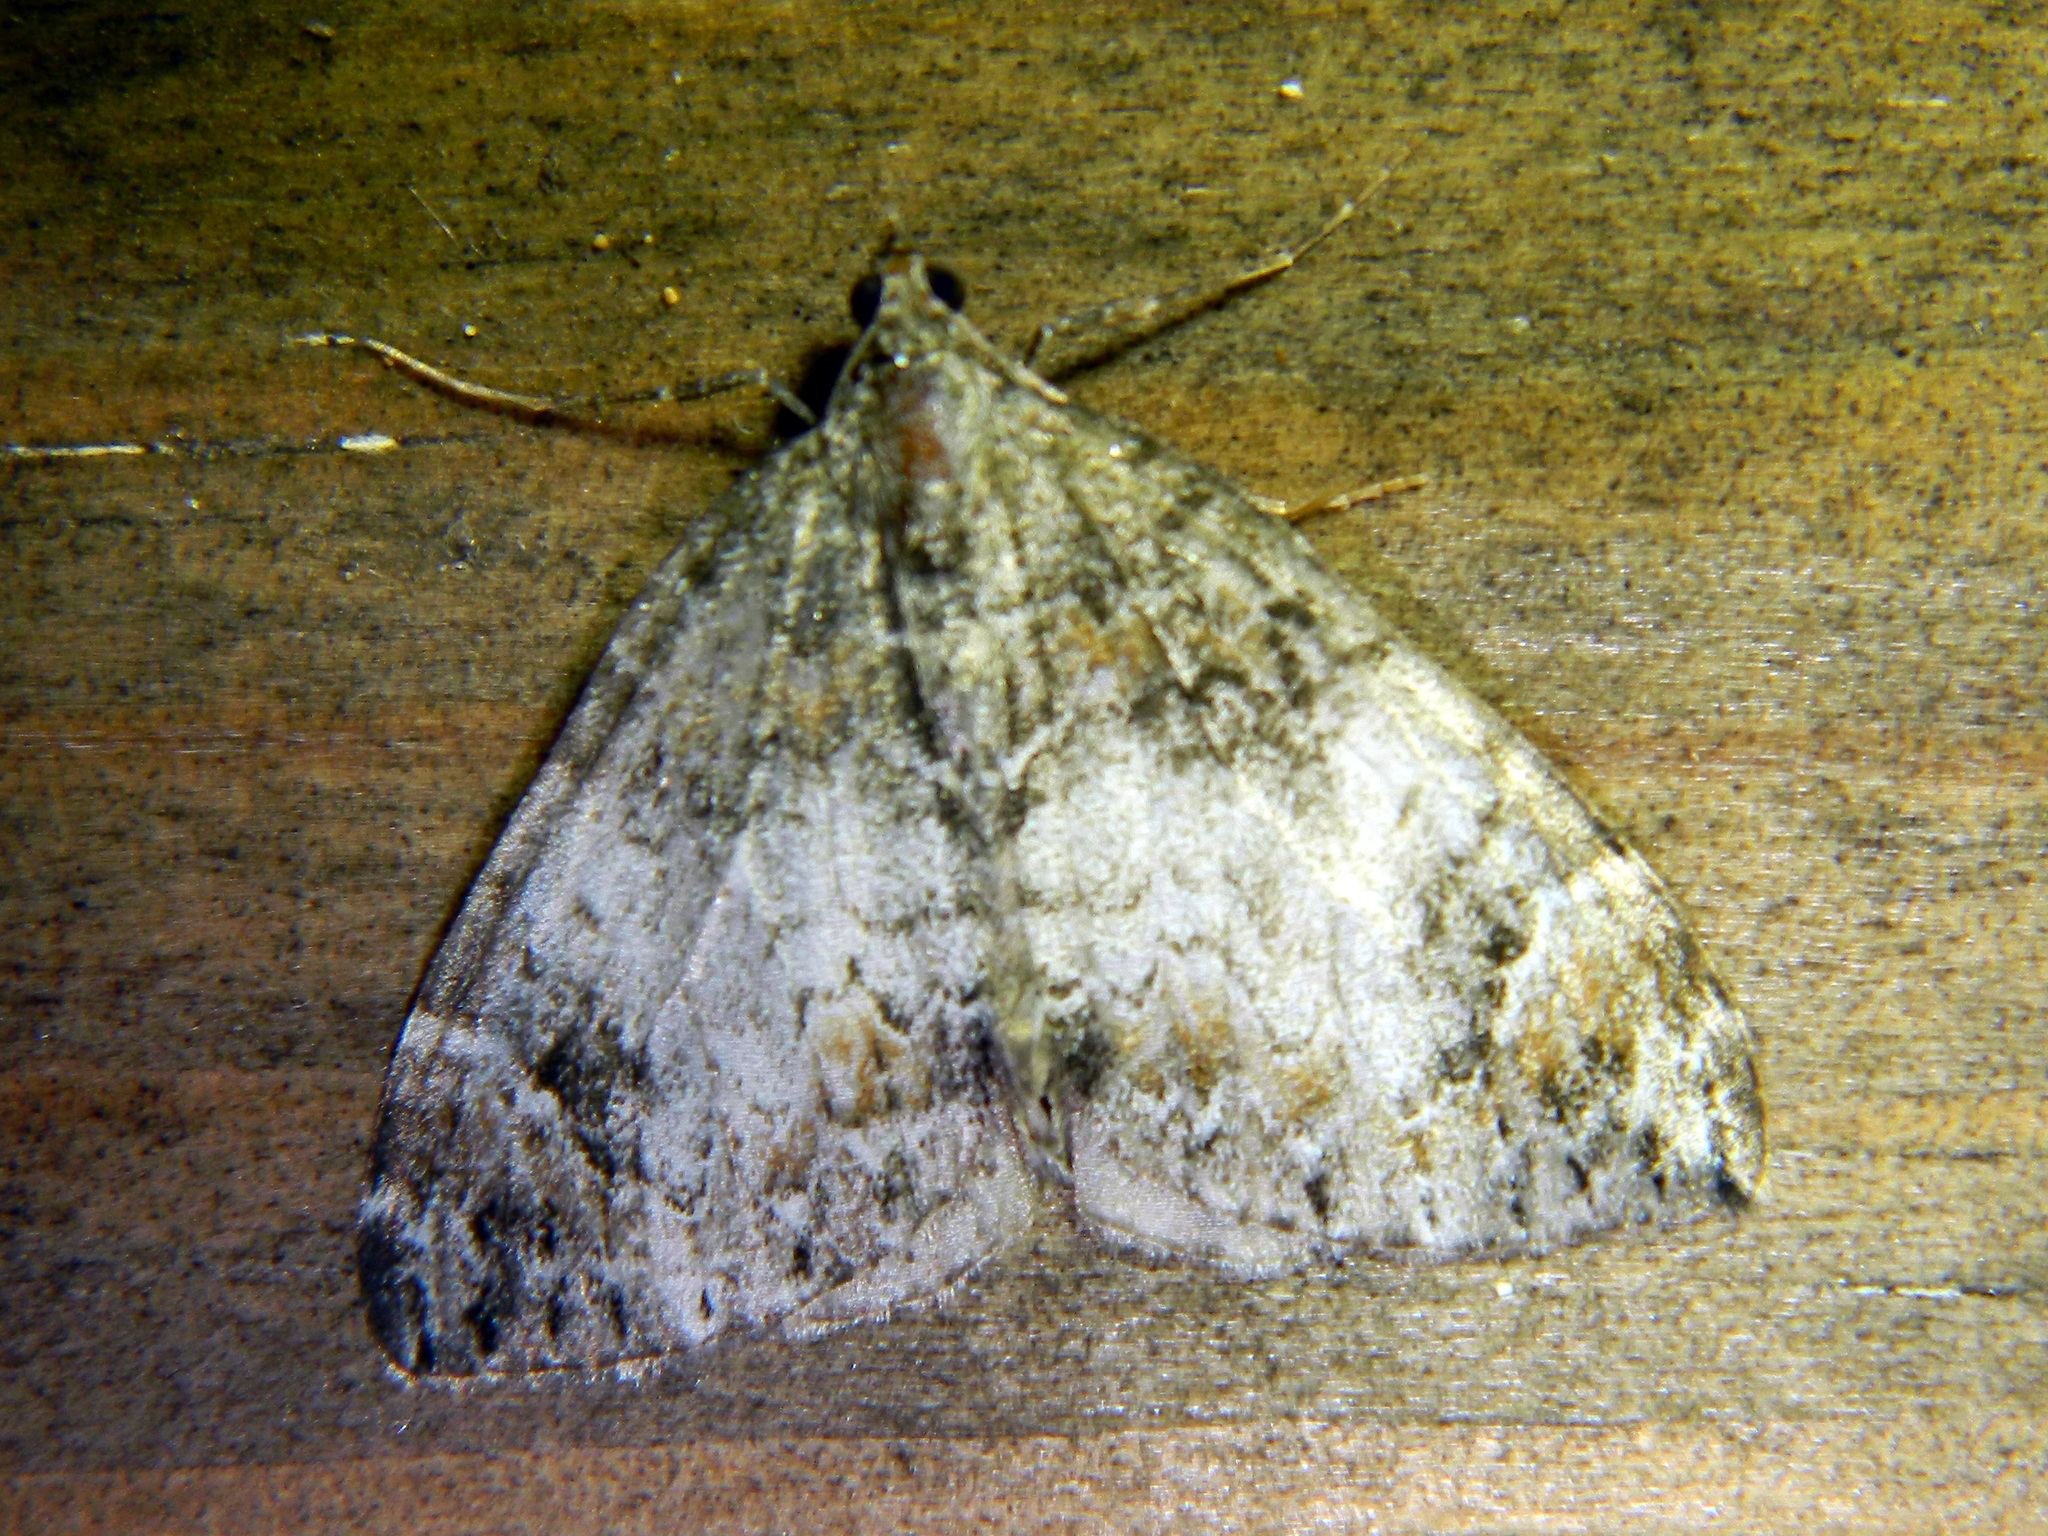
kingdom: Animalia
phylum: Arthropoda
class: Insecta
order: Lepidoptera
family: Geometridae
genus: Dysstroma
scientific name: Dysstroma citrata
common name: Dark marbled carpet
